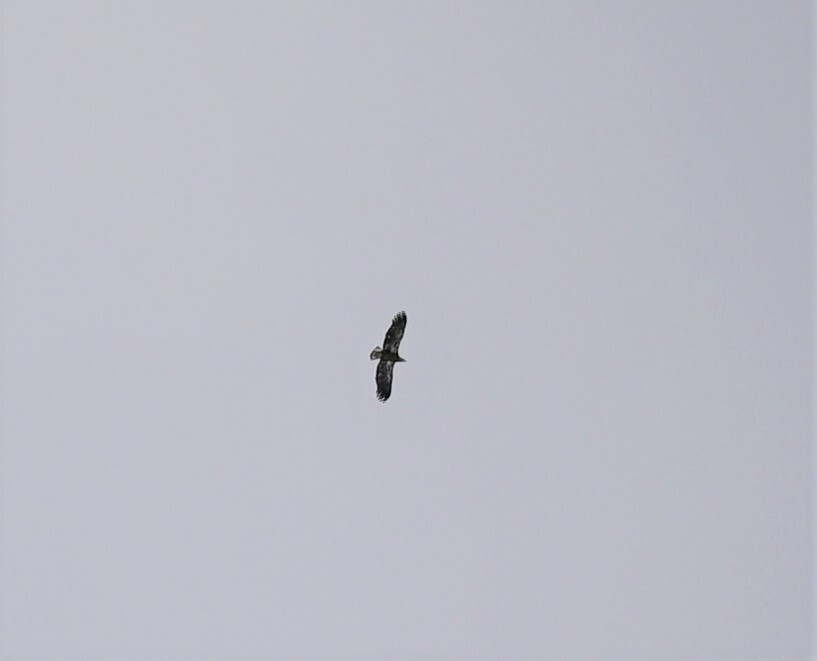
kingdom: Animalia
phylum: Chordata
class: Aves
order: Accipitriformes
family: Accipitridae
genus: Haliaeetus
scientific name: Haliaeetus leucocephalus
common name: Bald eagle
